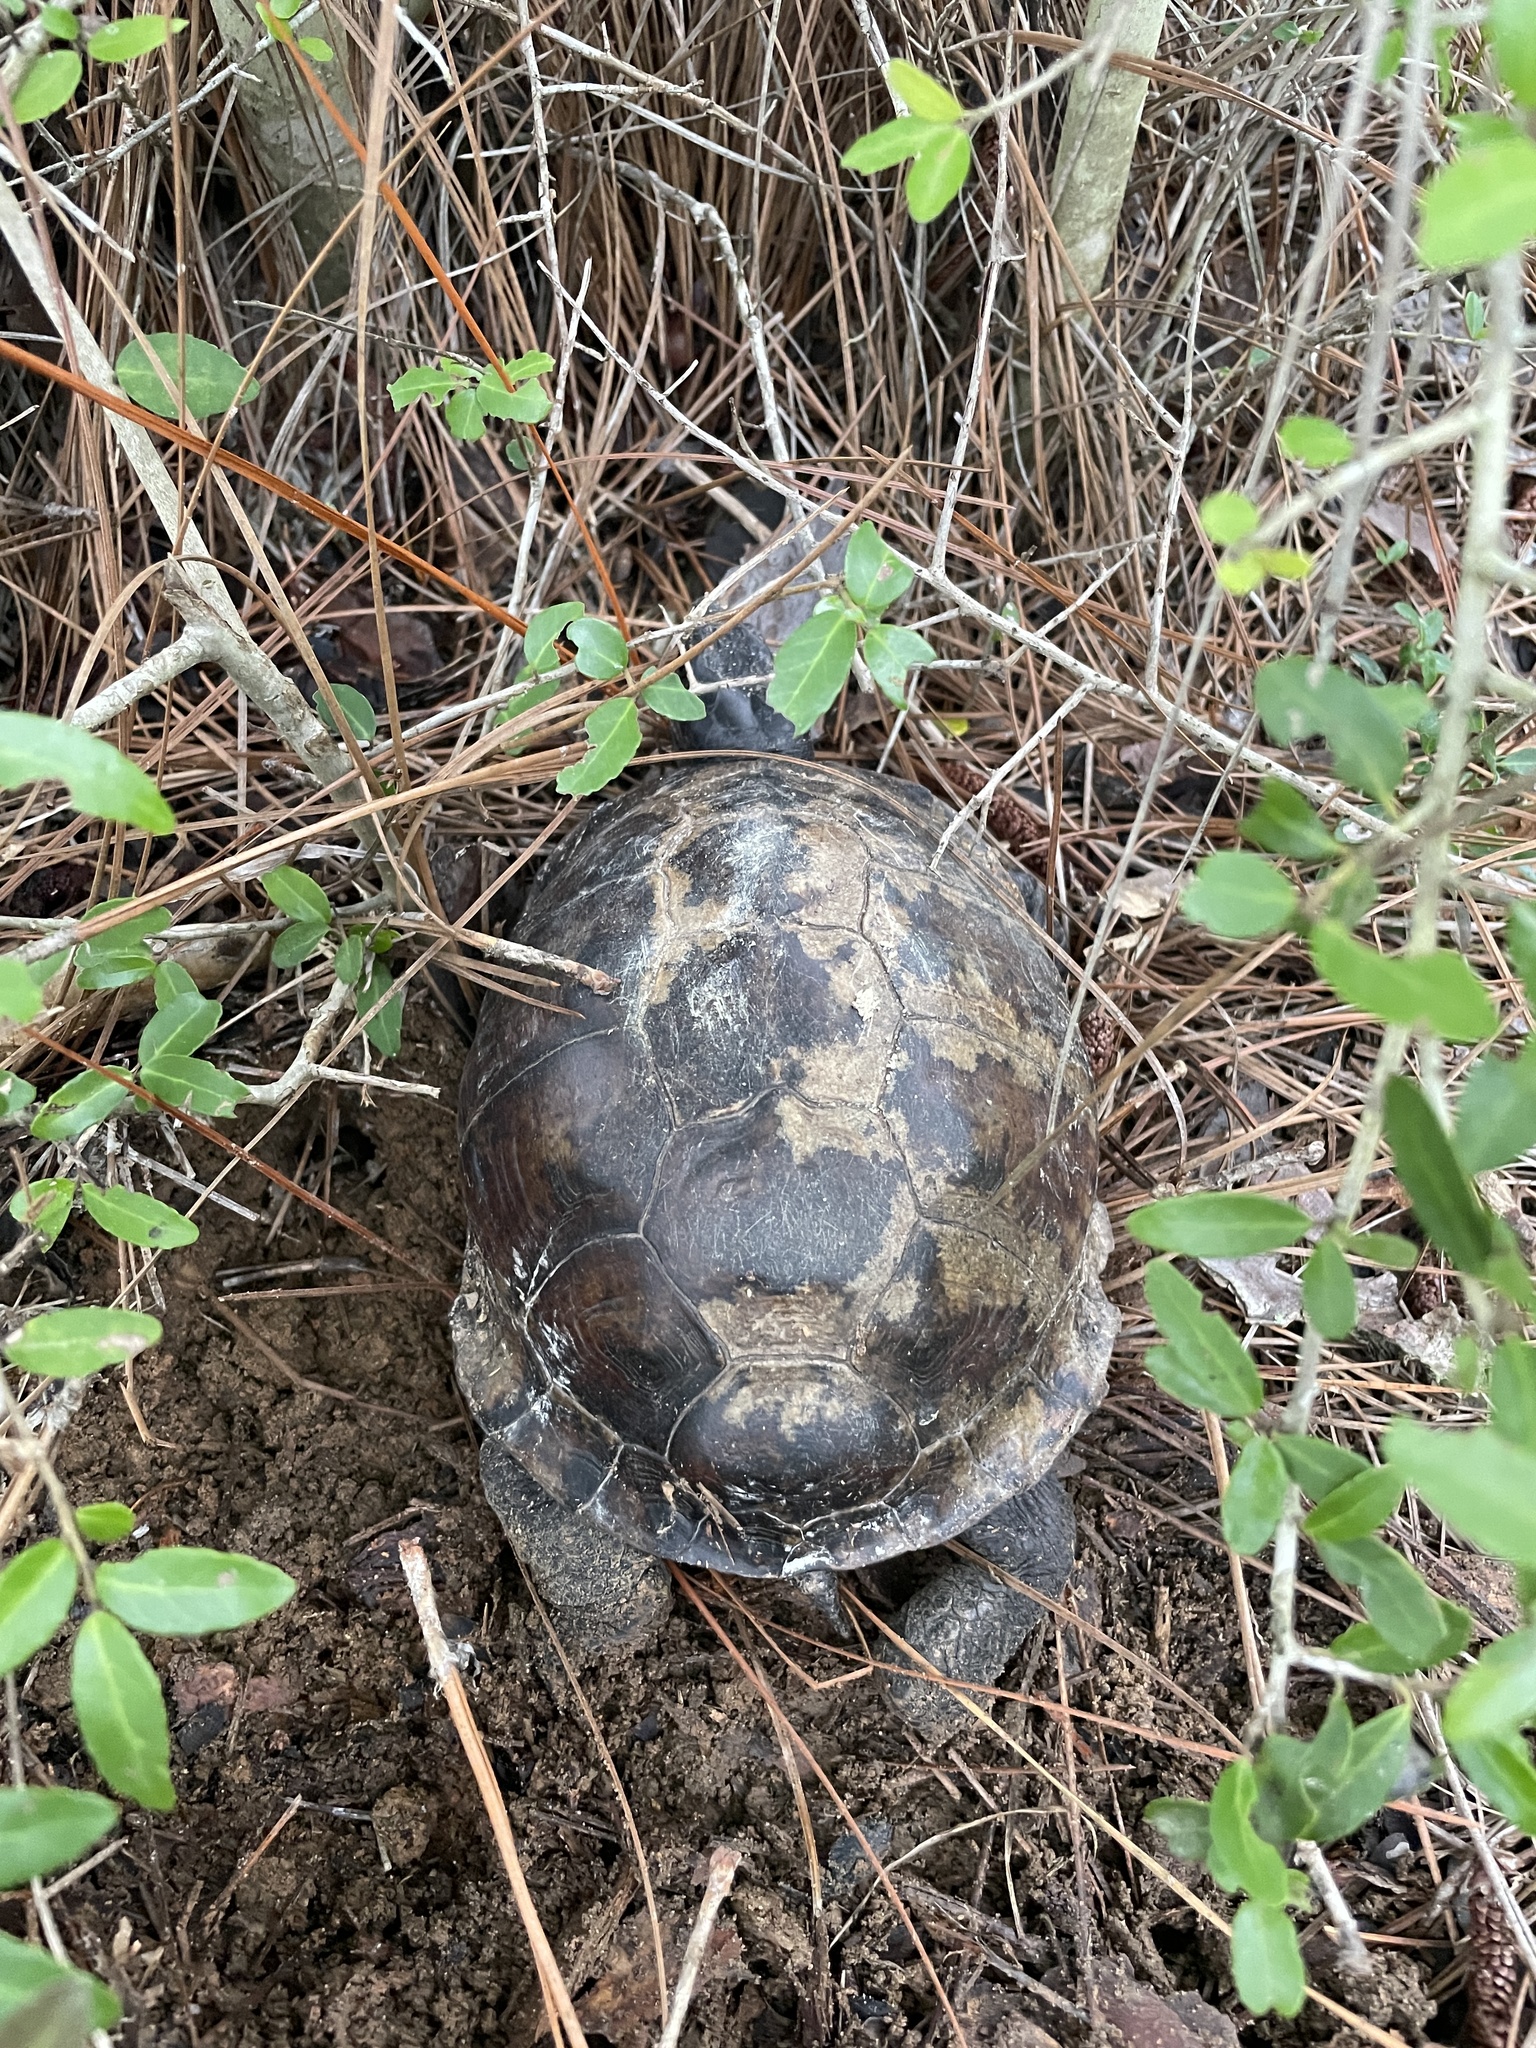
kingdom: Animalia
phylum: Chordata
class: Testudines
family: Emydidae
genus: Terrapene
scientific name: Terrapene carolina
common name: Common box turtle
